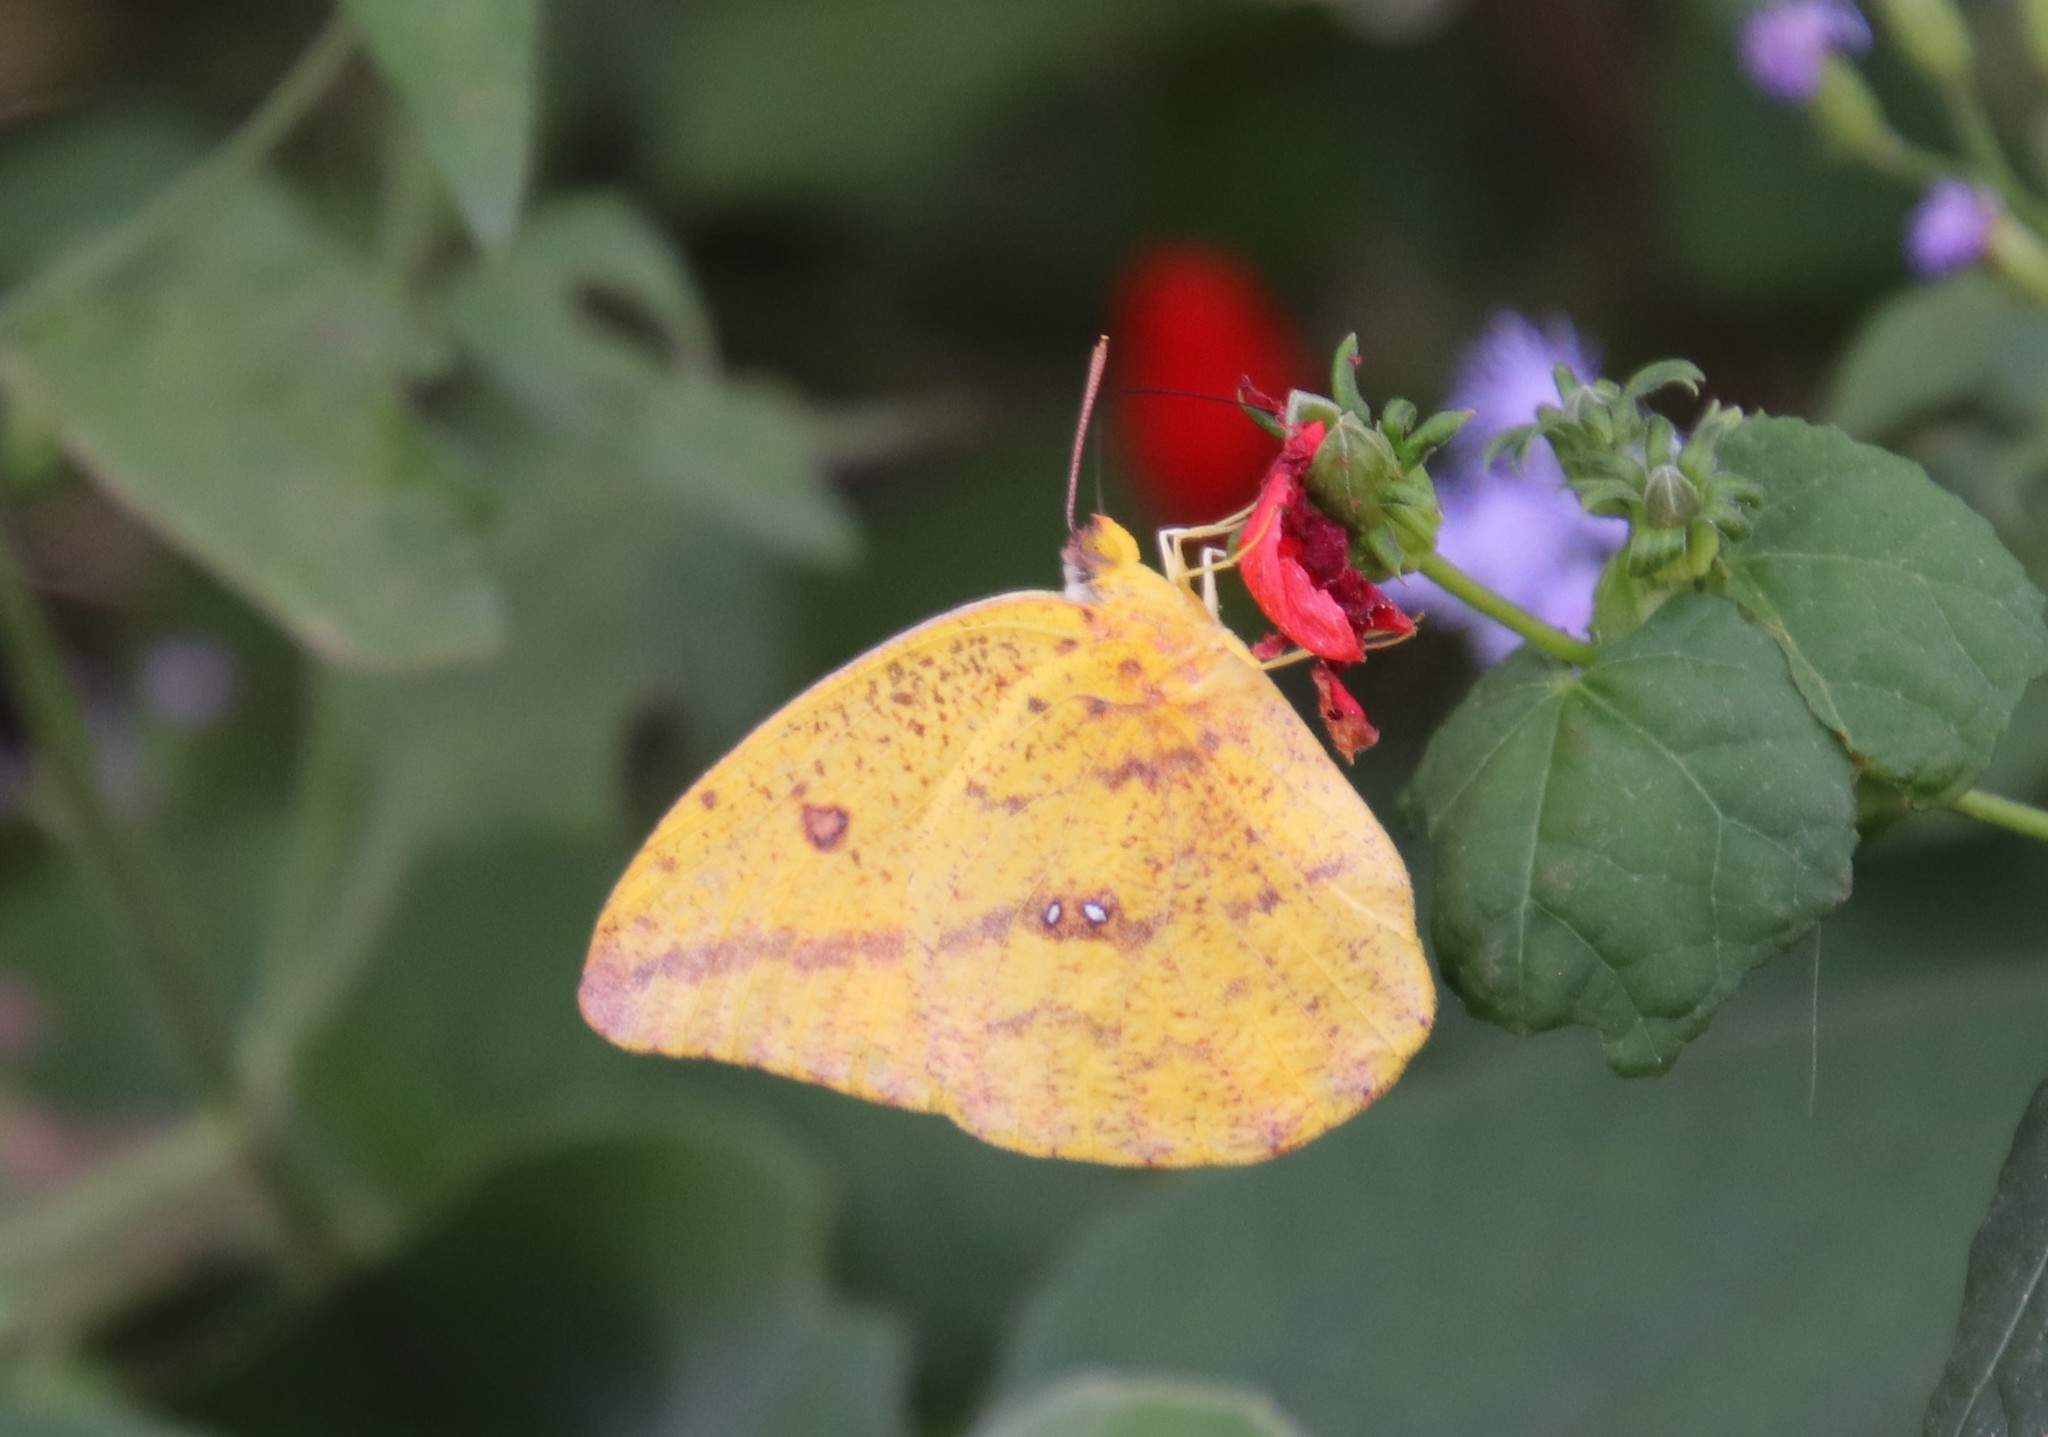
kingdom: Animalia
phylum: Arthropoda
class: Insecta
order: Lepidoptera
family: Pieridae
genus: Phoebis
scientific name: Phoebis agarithe
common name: Large orange sulphur
